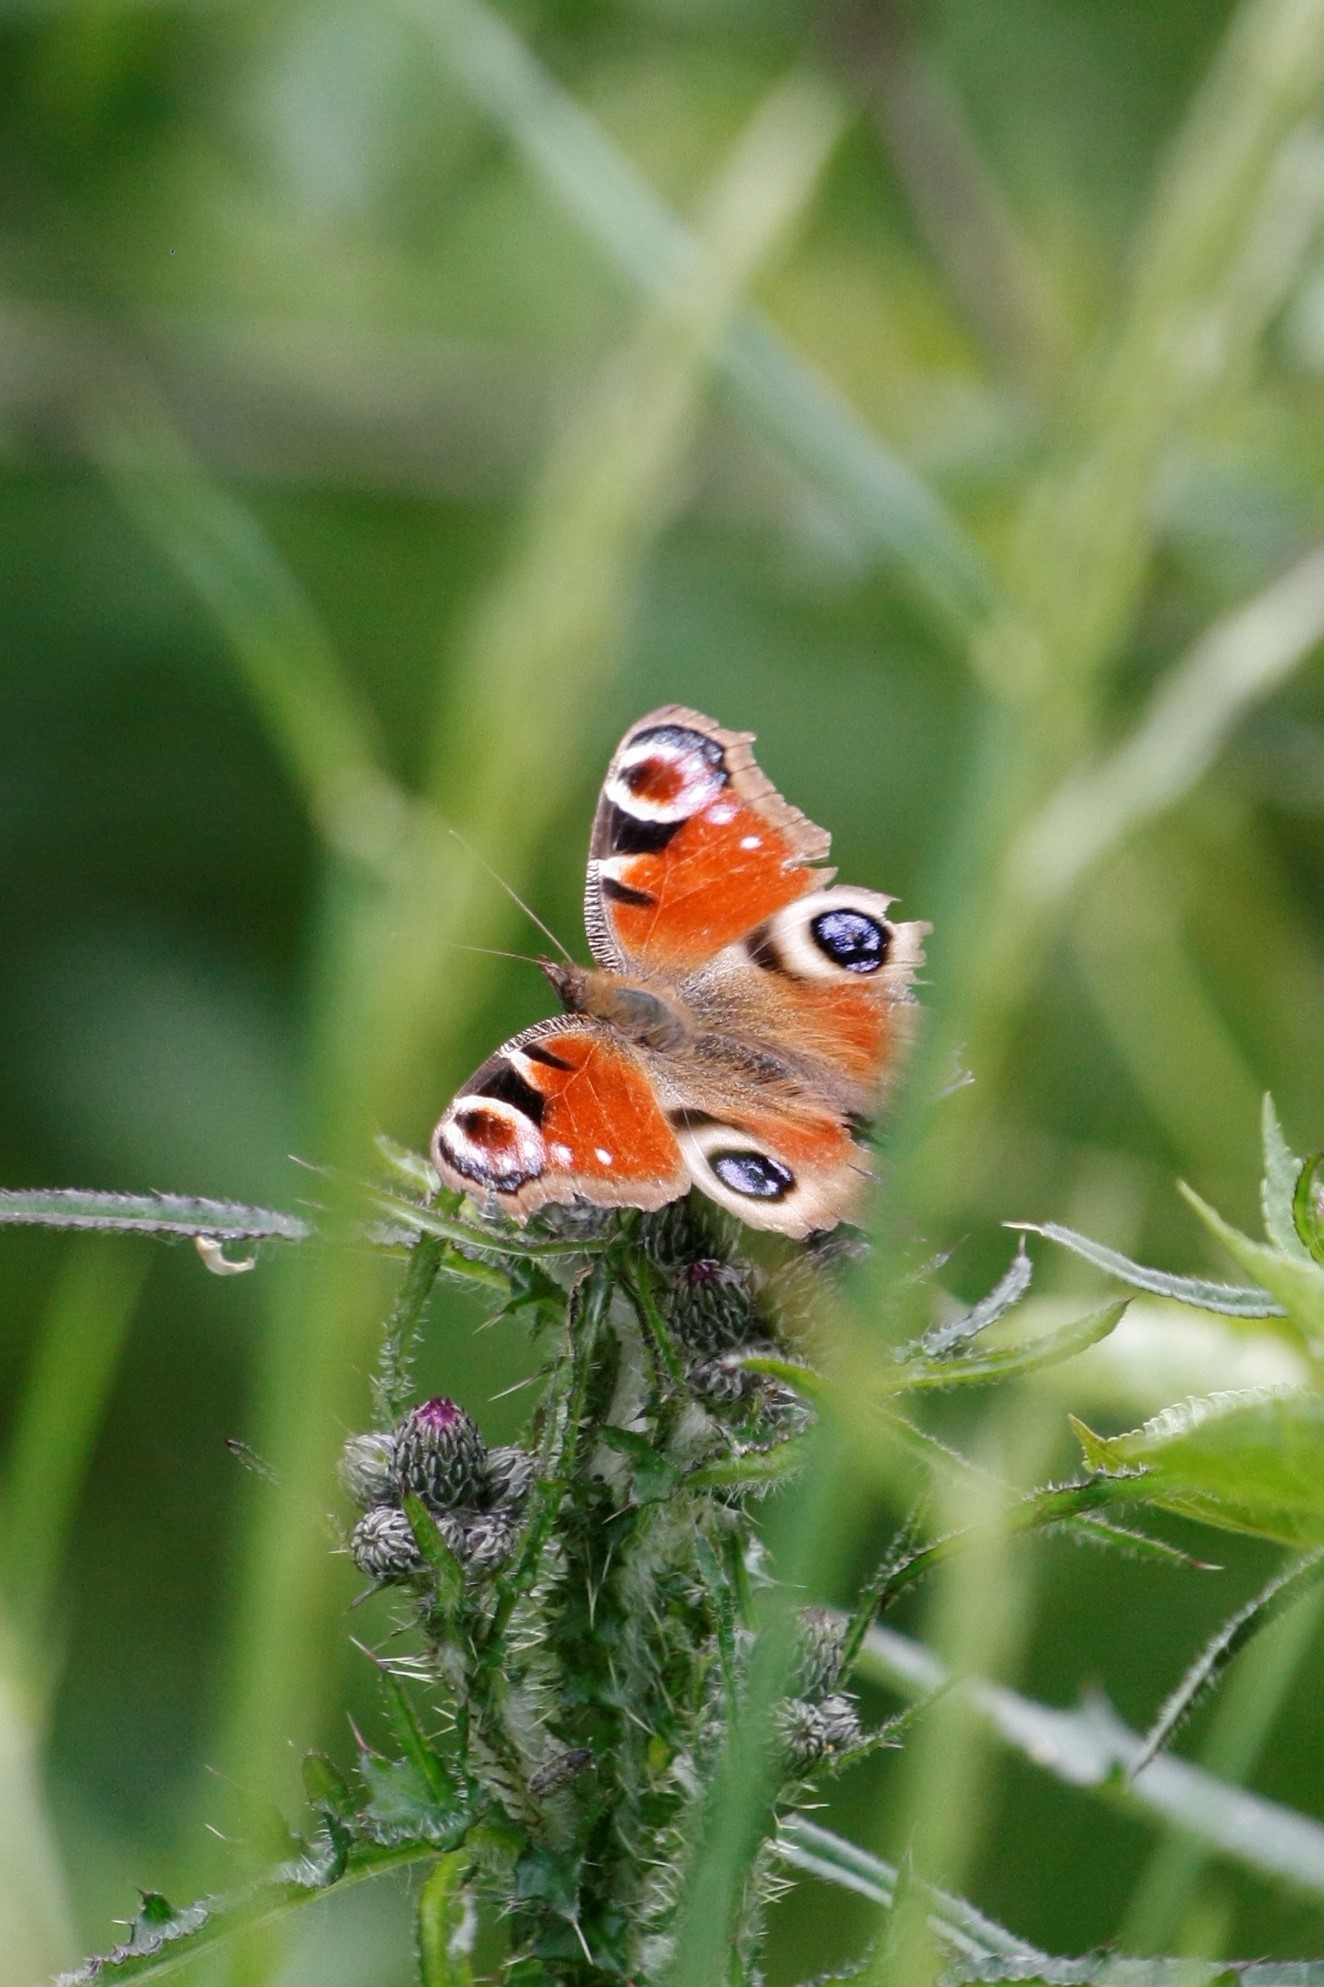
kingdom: Animalia
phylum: Arthropoda
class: Insecta
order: Lepidoptera
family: Nymphalidae
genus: Aglais
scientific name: Aglais io
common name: Peacock
